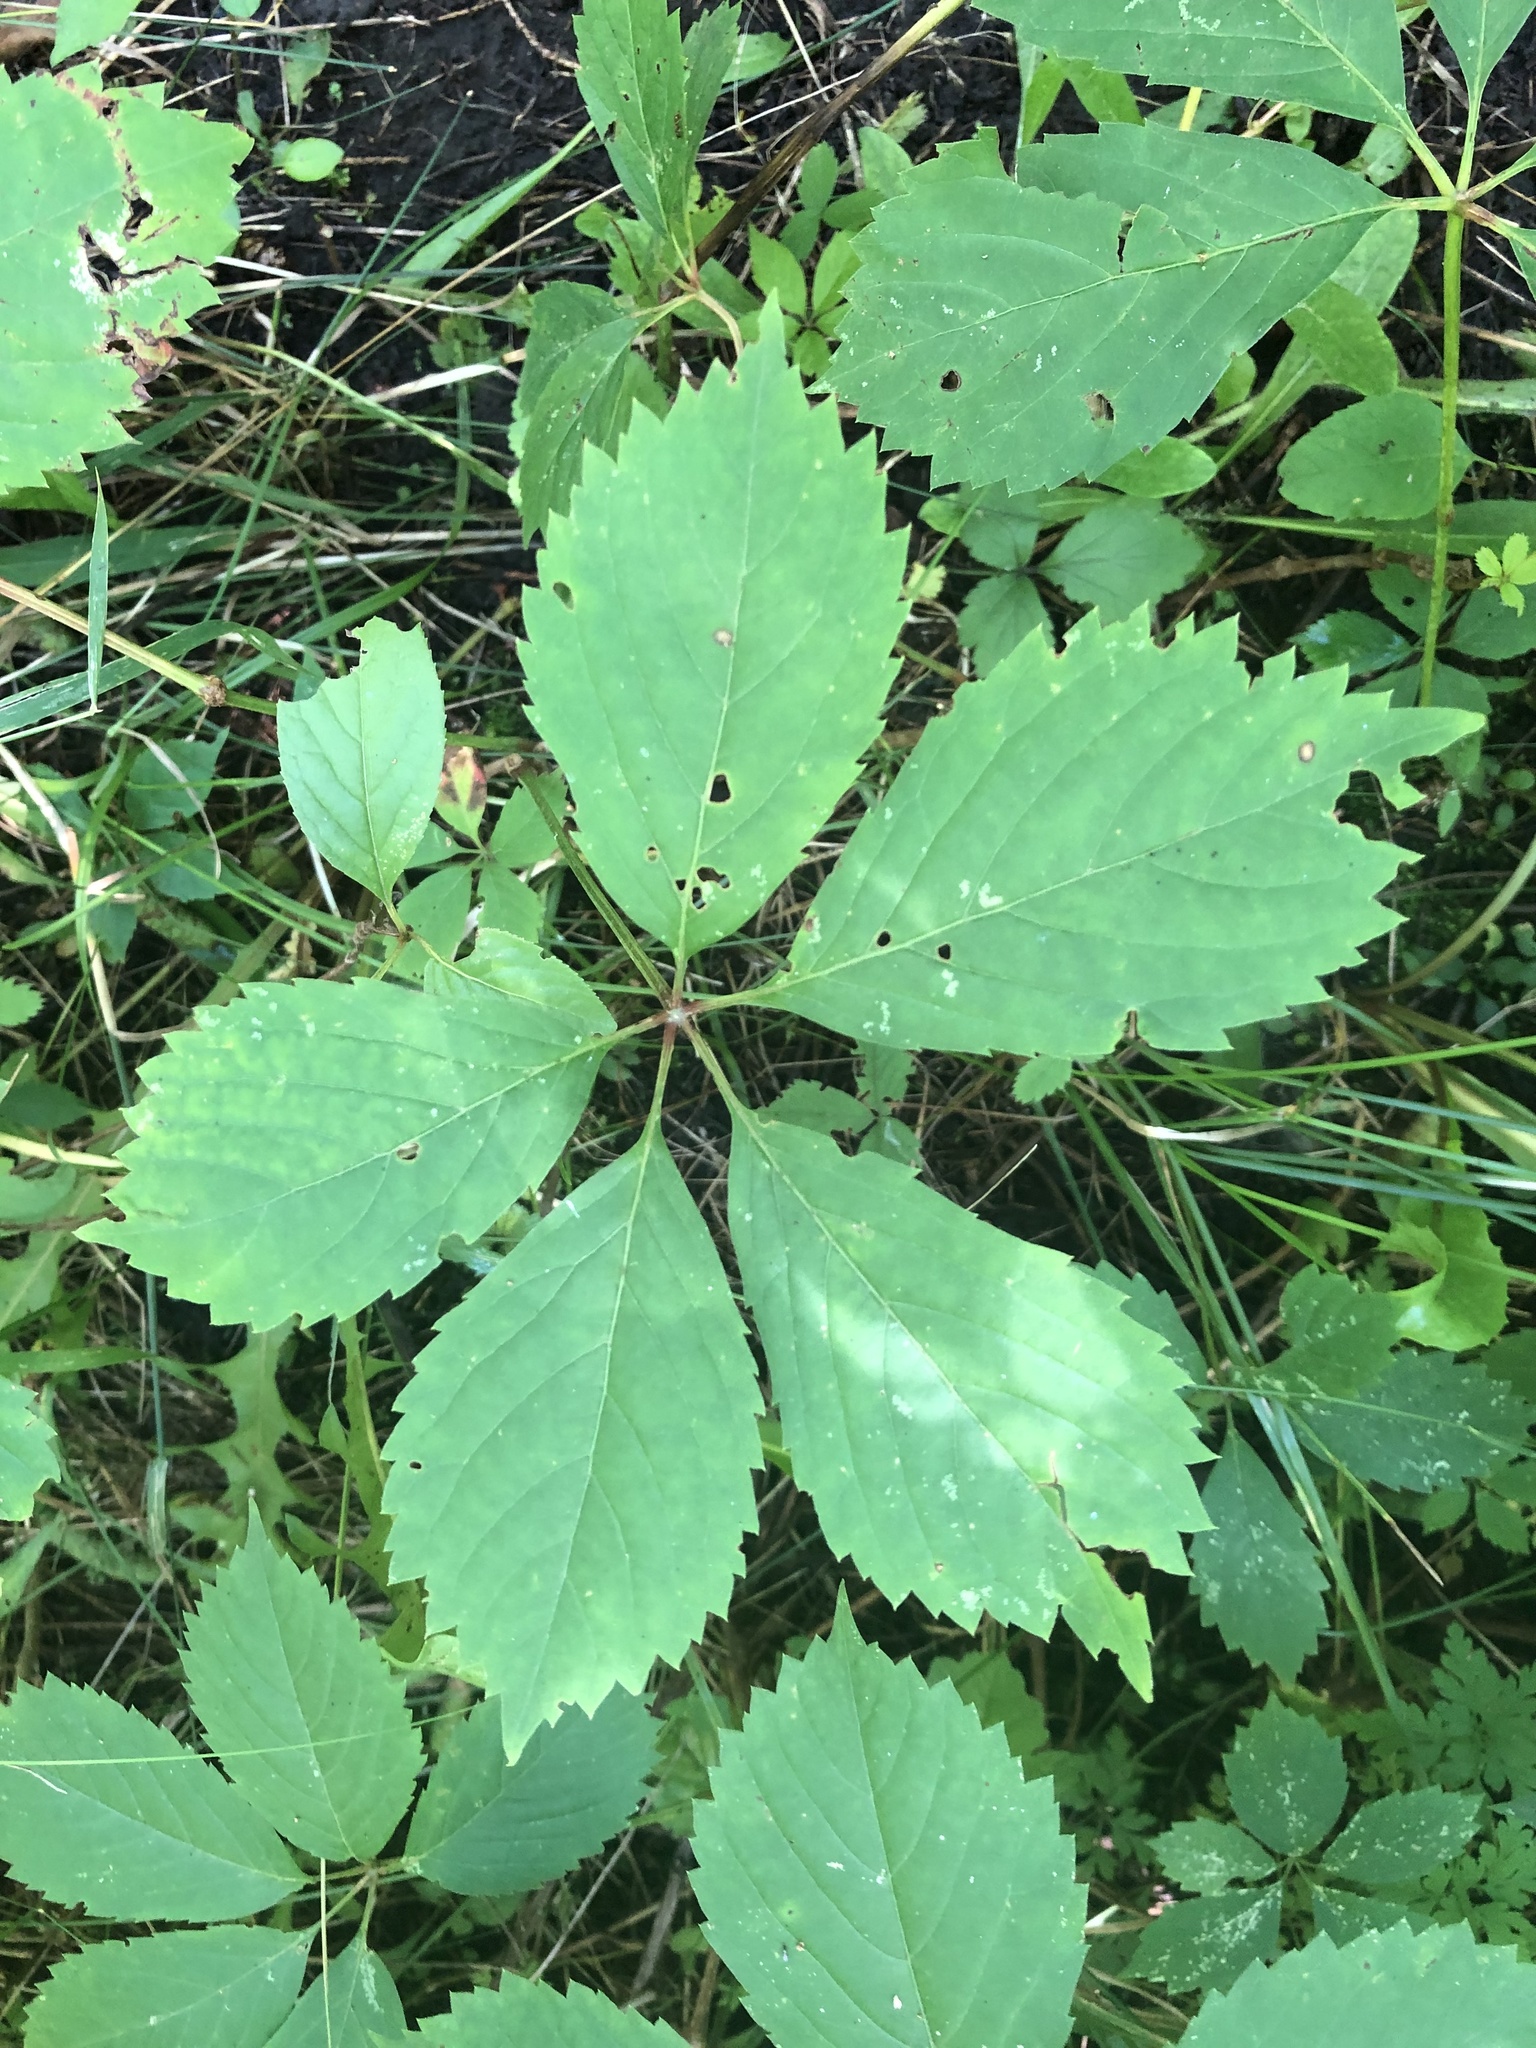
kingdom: Plantae
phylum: Tracheophyta
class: Magnoliopsida
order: Vitales
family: Vitaceae
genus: Parthenocissus
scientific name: Parthenocissus quinquefolia
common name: Virginia-creeper
